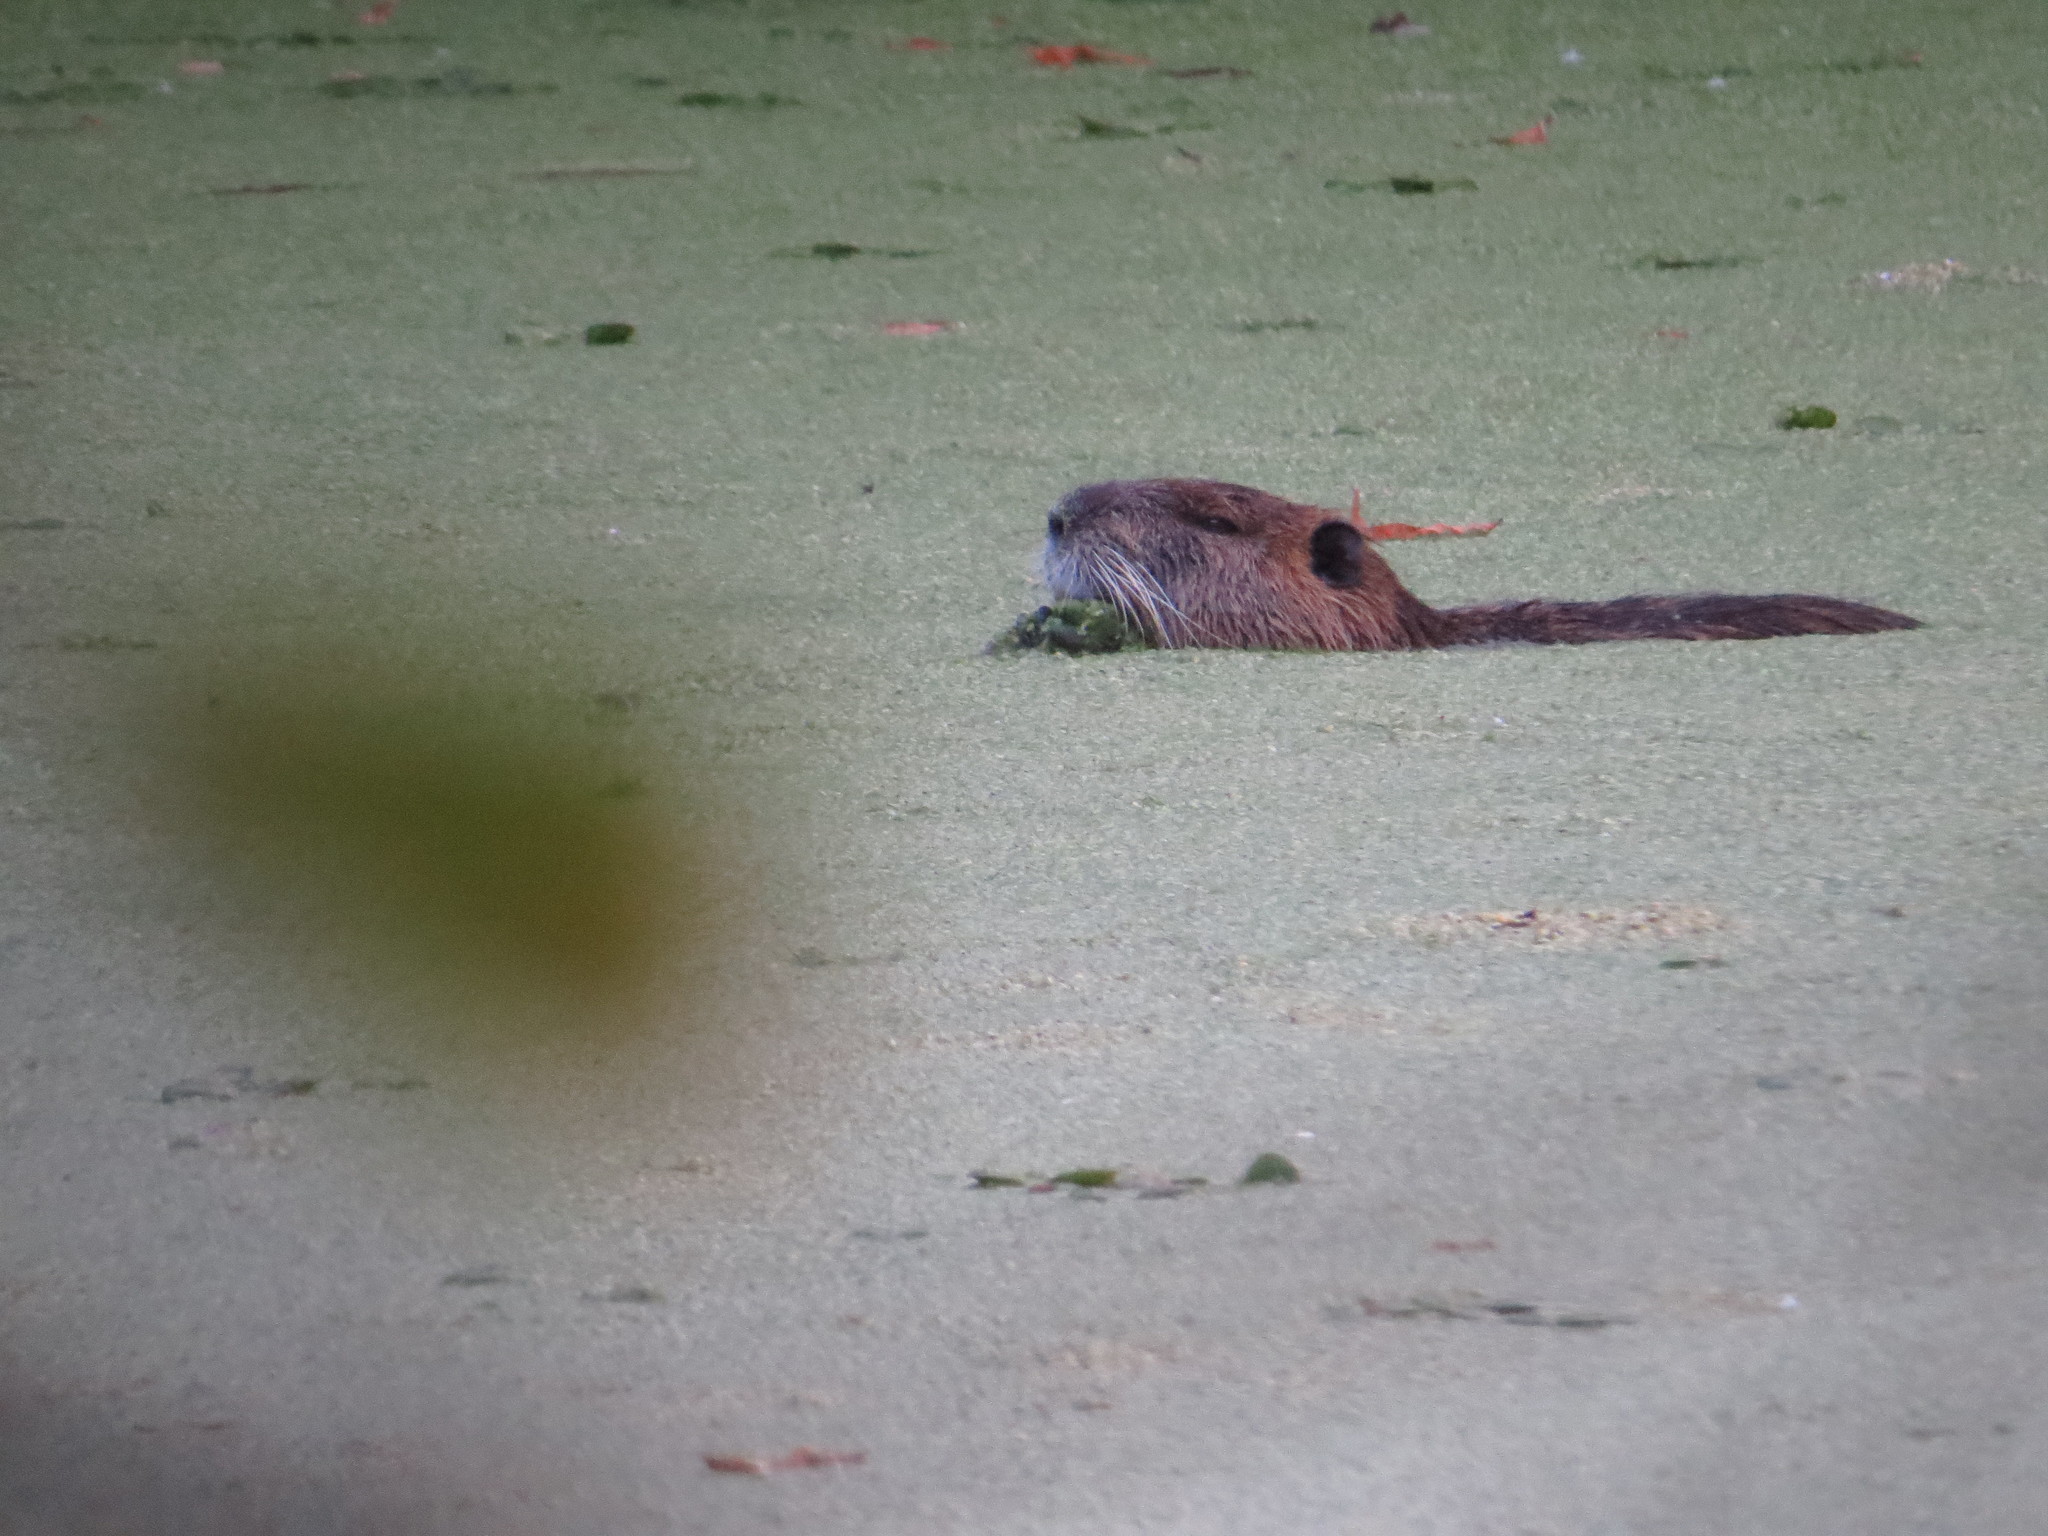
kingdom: Animalia
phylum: Chordata
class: Mammalia
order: Rodentia
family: Myocastoridae
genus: Myocastor
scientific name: Myocastor coypus
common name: Coypu
